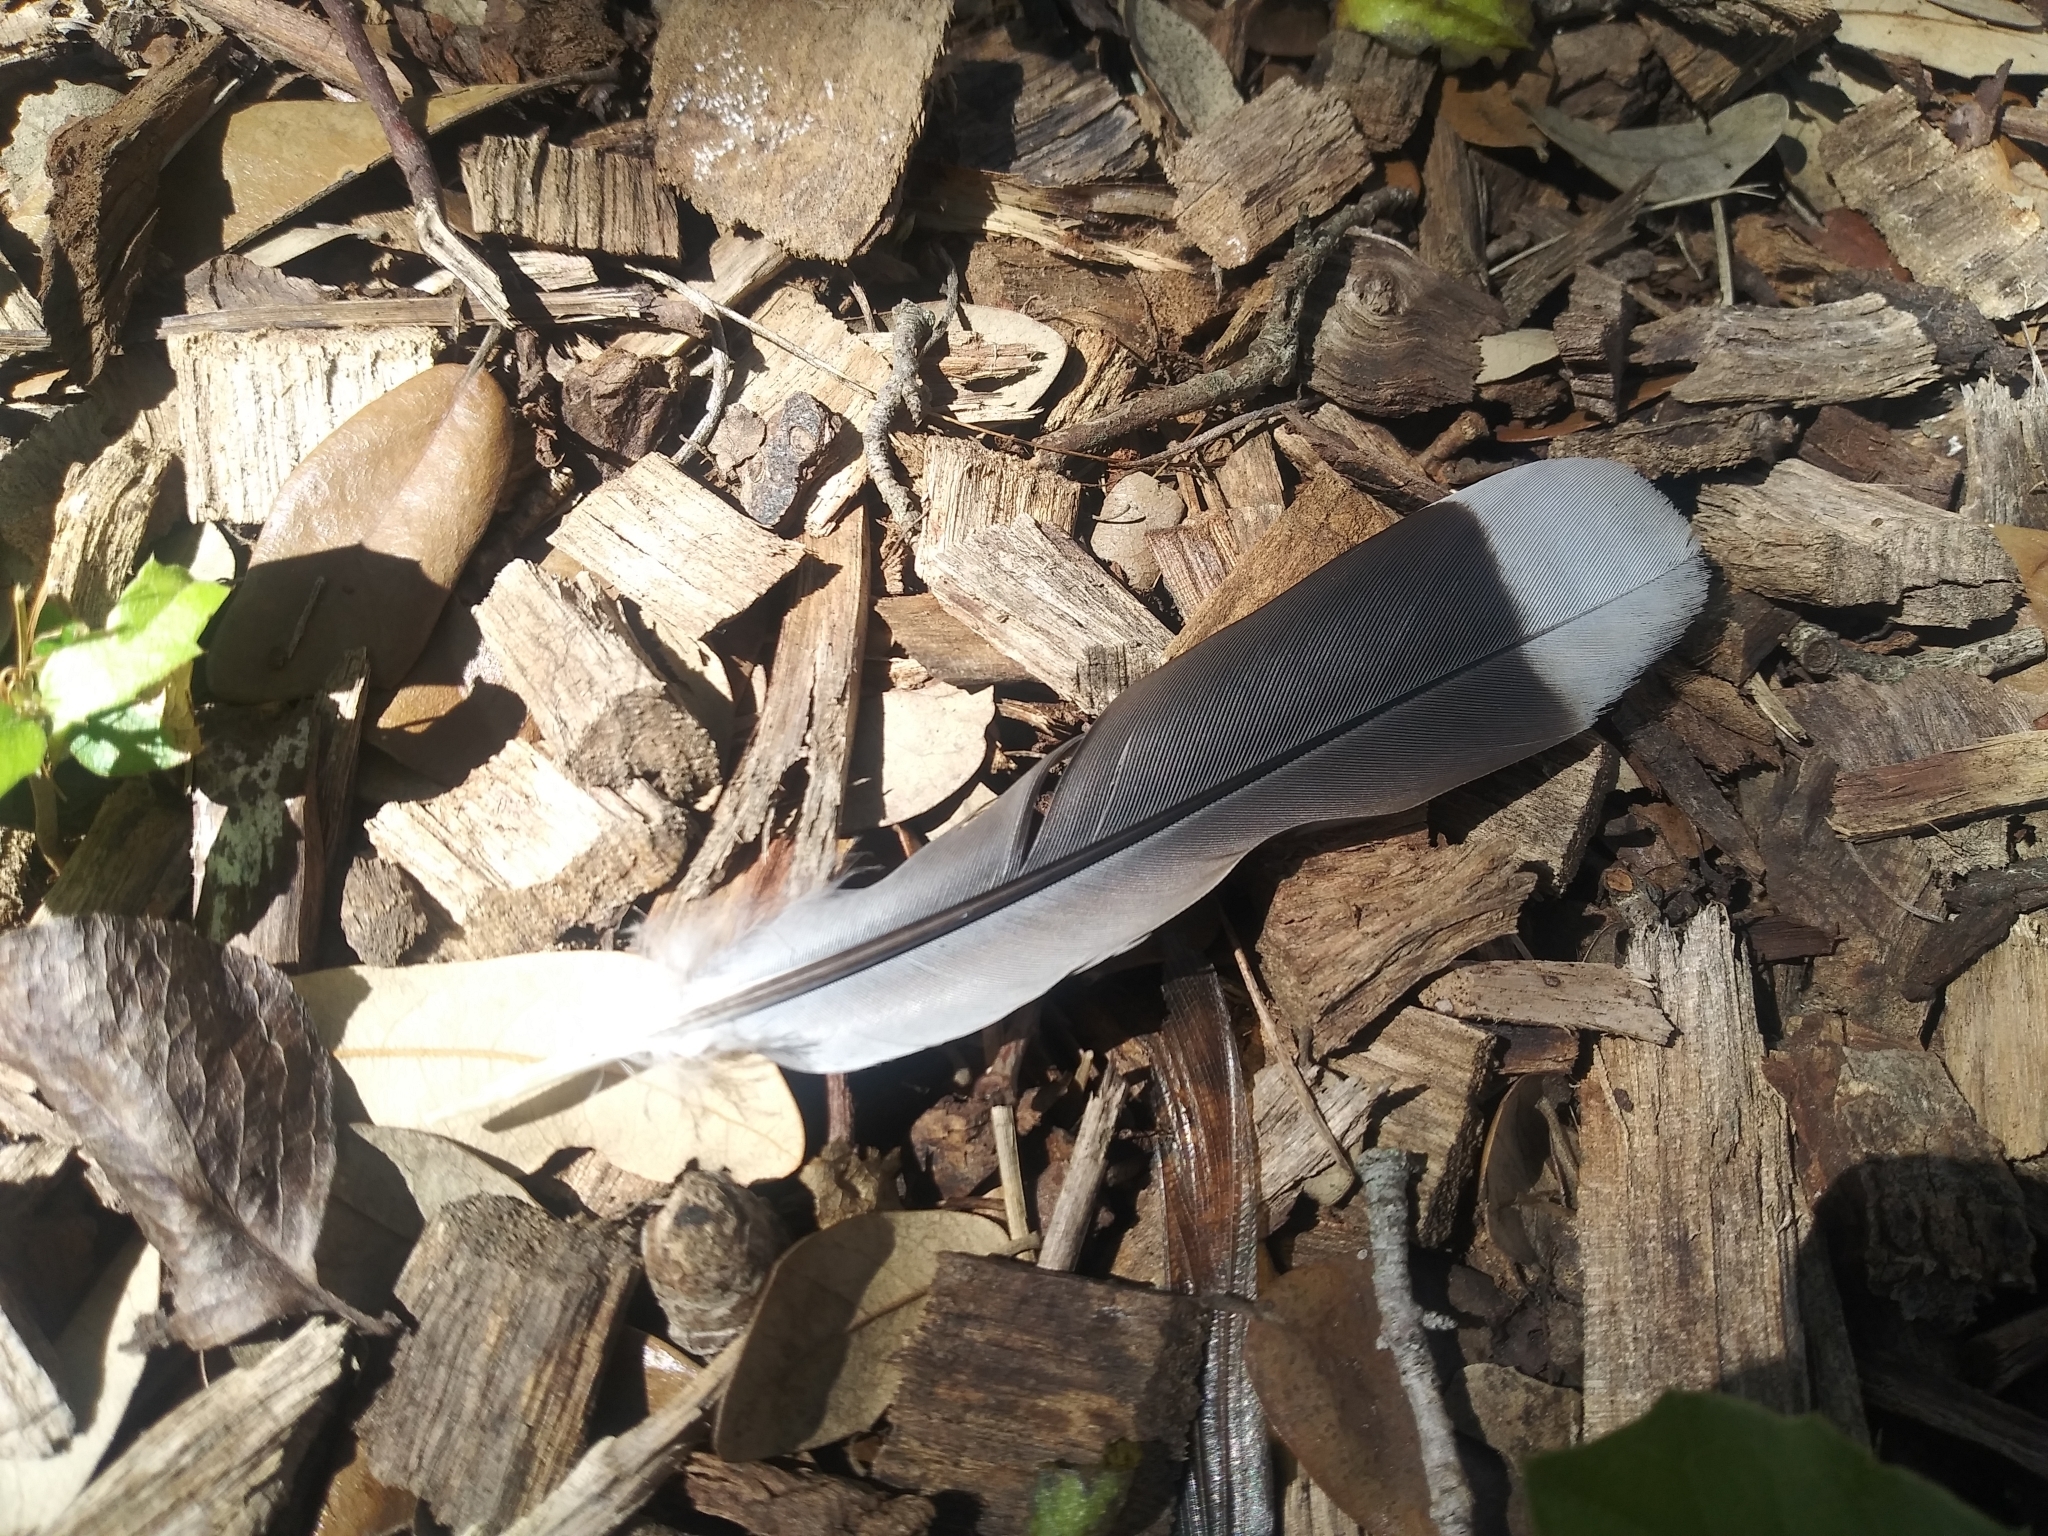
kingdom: Animalia
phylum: Chordata
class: Aves
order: Columbiformes
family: Columbidae
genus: Zenaida
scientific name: Zenaida asiatica
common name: White-winged dove
